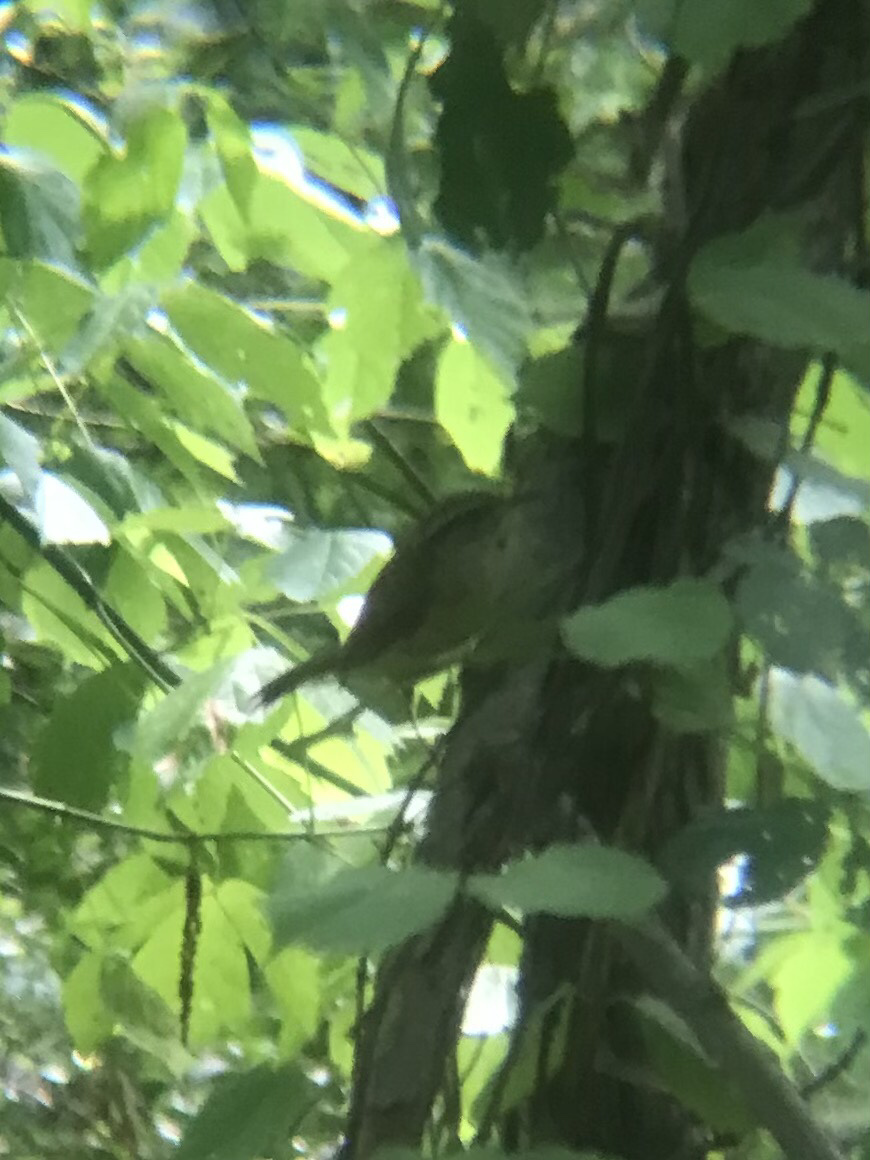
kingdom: Animalia
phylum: Chordata
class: Aves
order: Passeriformes
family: Troglodytidae
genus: Thryothorus
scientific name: Thryothorus ludovicianus
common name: Carolina wren
